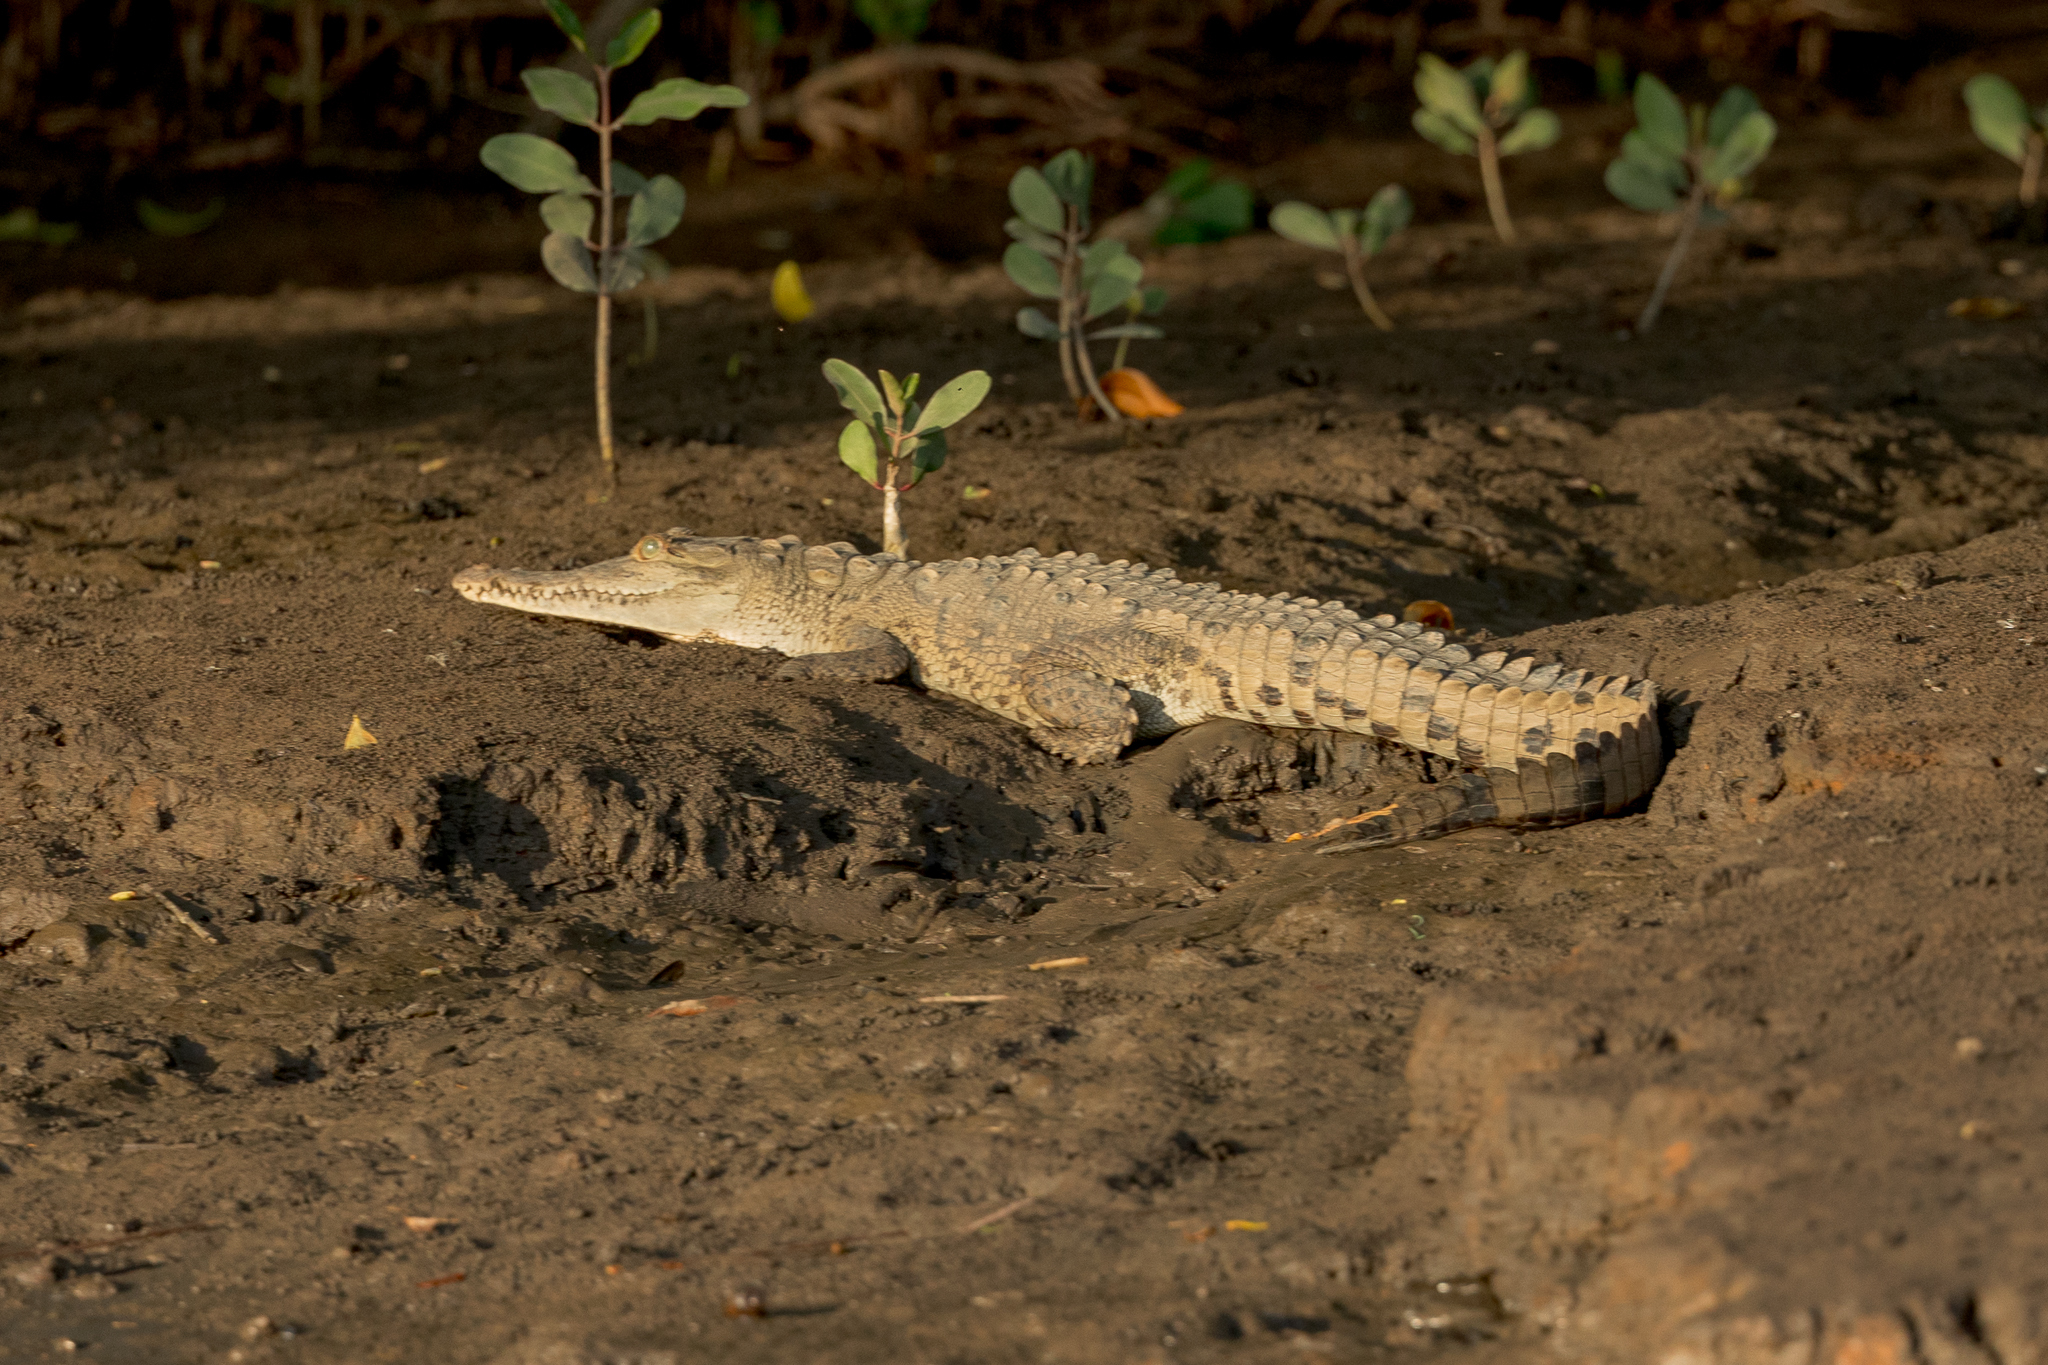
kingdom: Animalia
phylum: Chordata
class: Crocodylia
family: Crocodylidae
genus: Crocodylus
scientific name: Crocodylus acutus
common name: American crocodile
